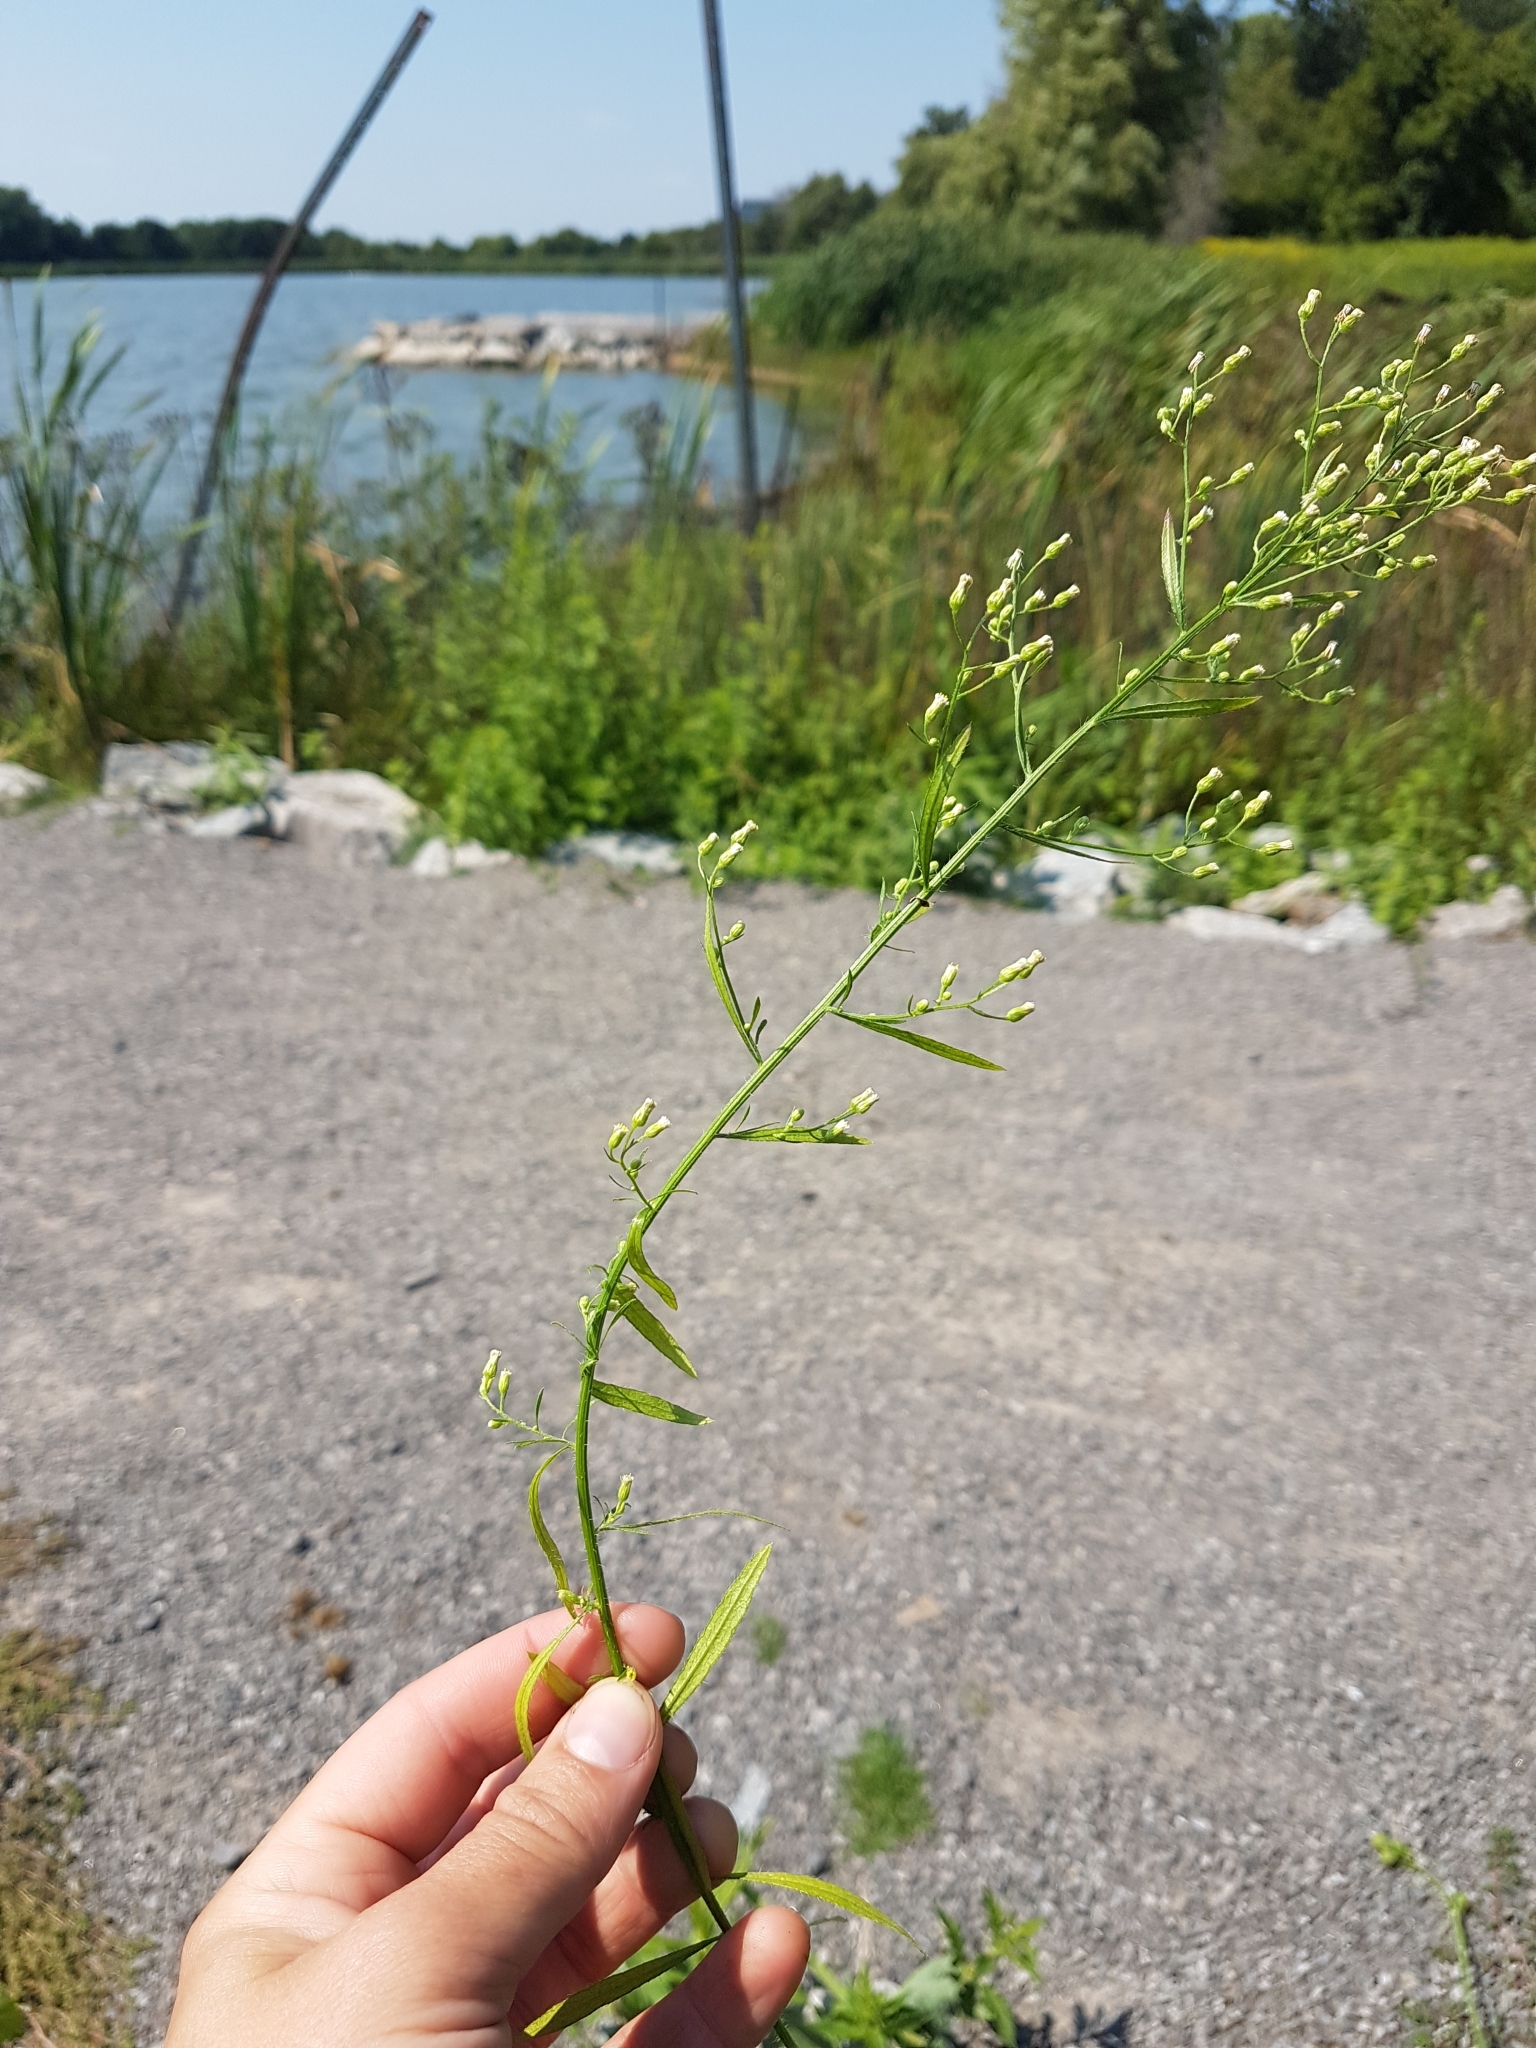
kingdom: Plantae
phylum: Tracheophyta
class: Magnoliopsida
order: Asterales
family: Asteraceae
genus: Erigeron
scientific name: Erigeron canadensis
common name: Canadian fleabane
